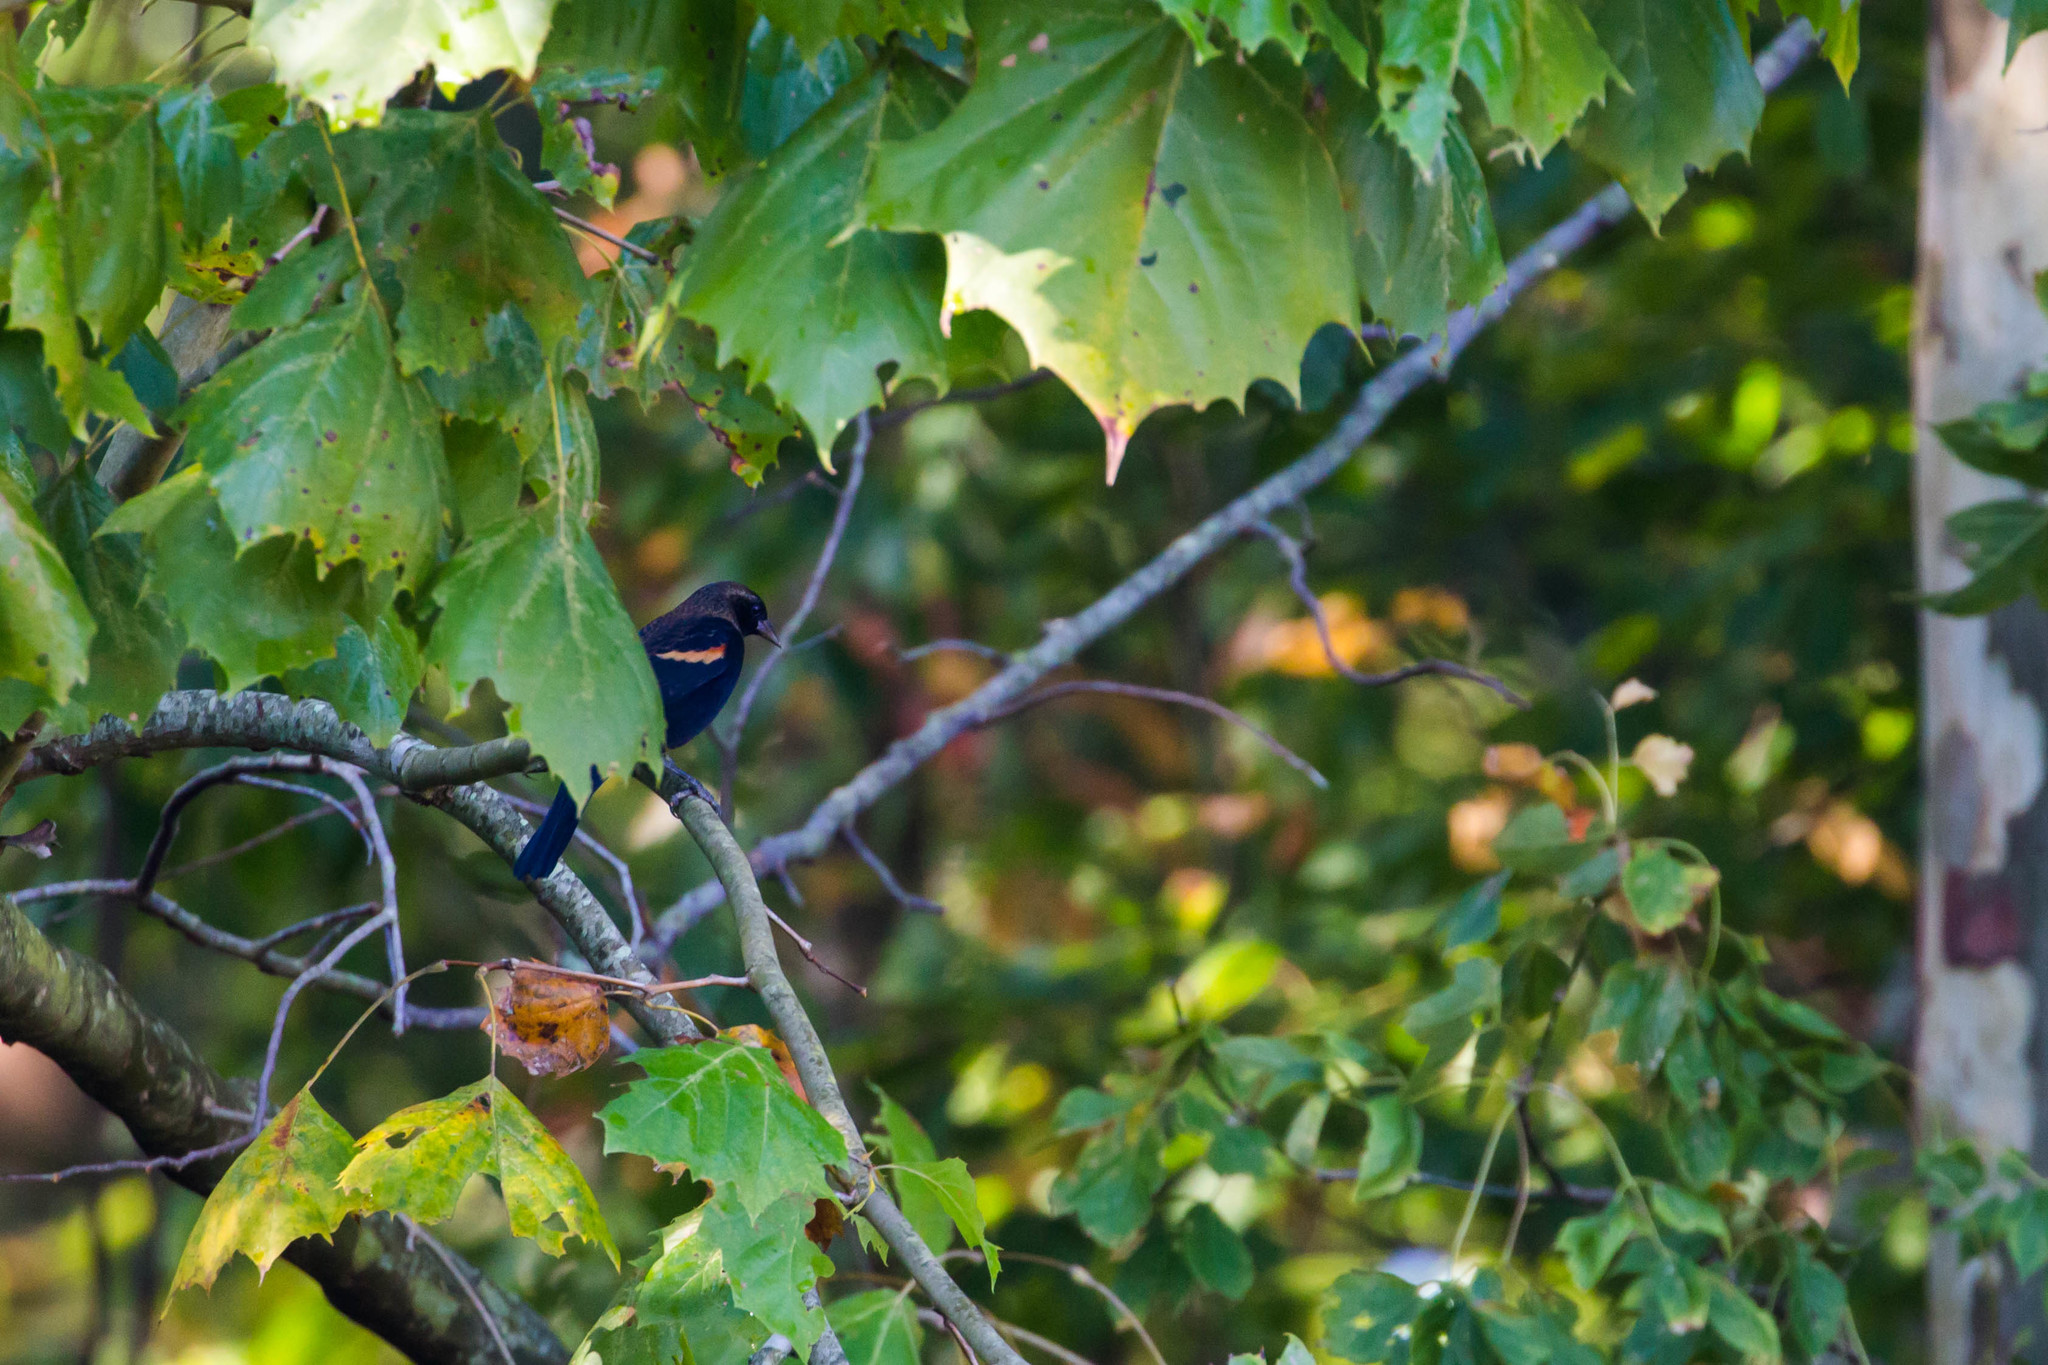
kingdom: Animalia
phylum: Chordata
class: Aves
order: Passeriformes
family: Icteridae
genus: Agelaius
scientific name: Agelaius phoeniceus
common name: Red-winged blackbird
